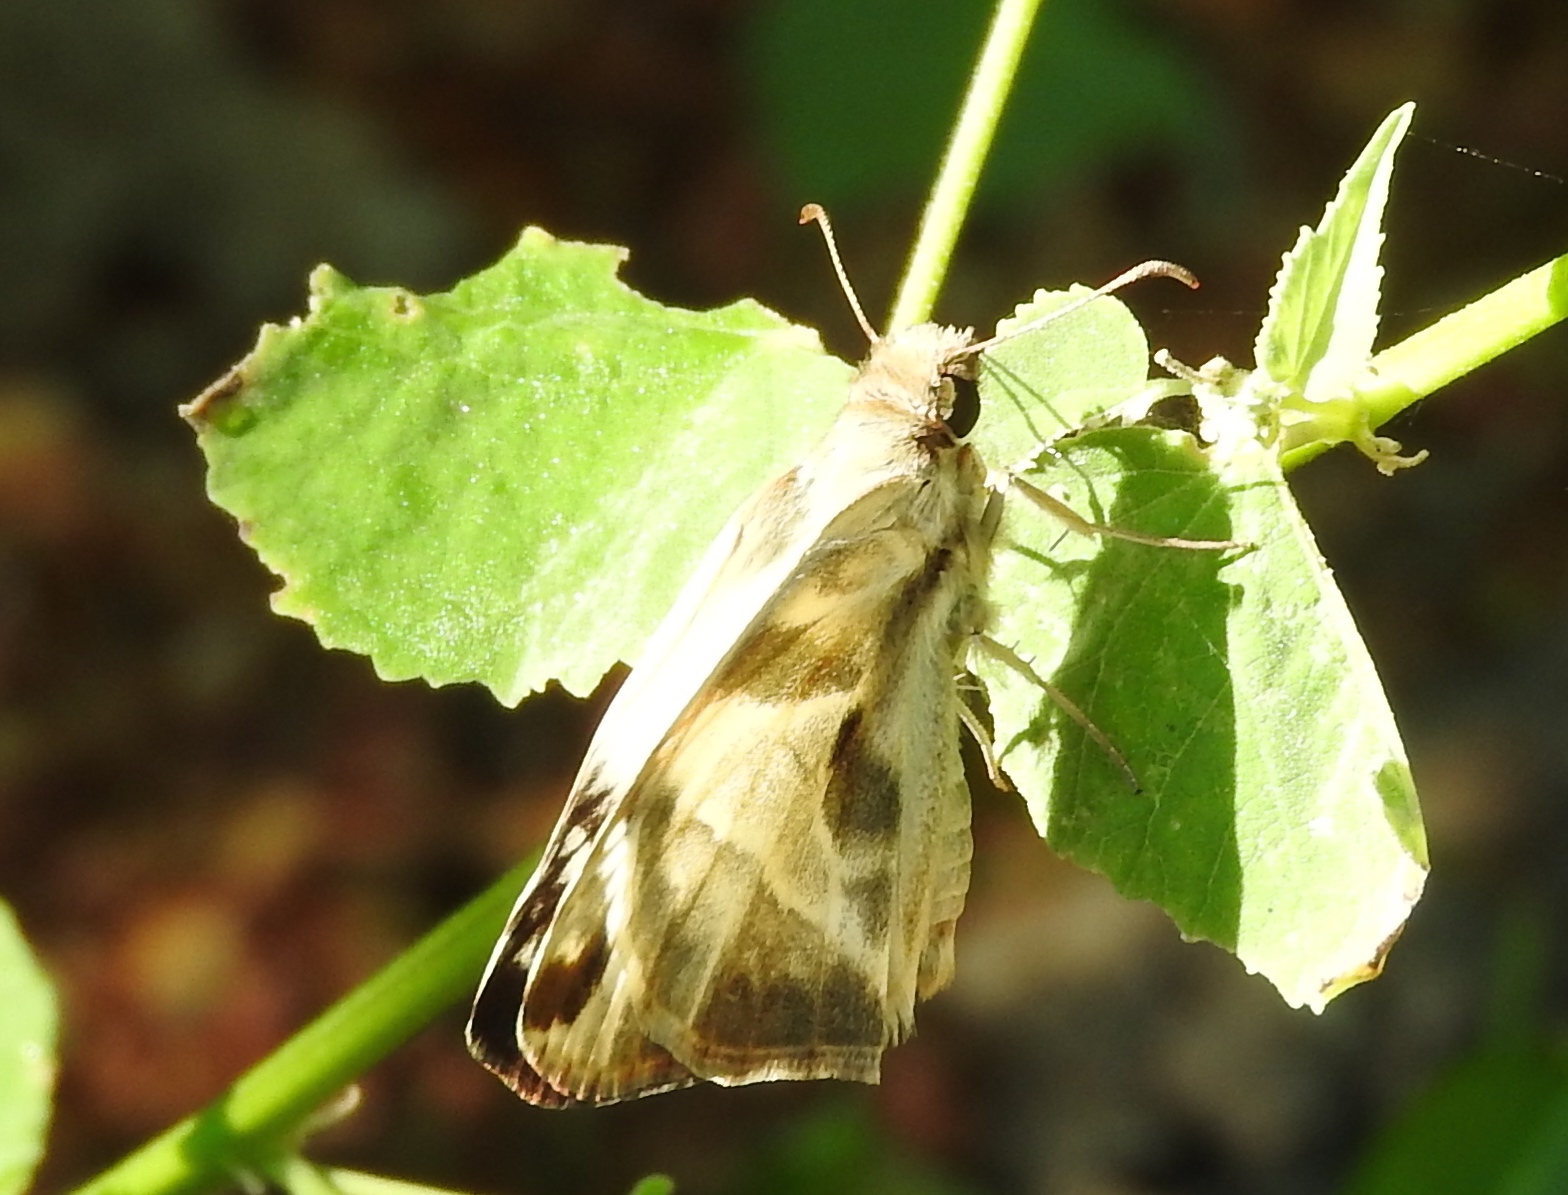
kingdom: Animalia
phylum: Arthropoda
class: Insecta
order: Lepidoptera
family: Hesperiidae
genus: Heliopetes
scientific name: Heliopetes laviana
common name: Laviana white-skipper
